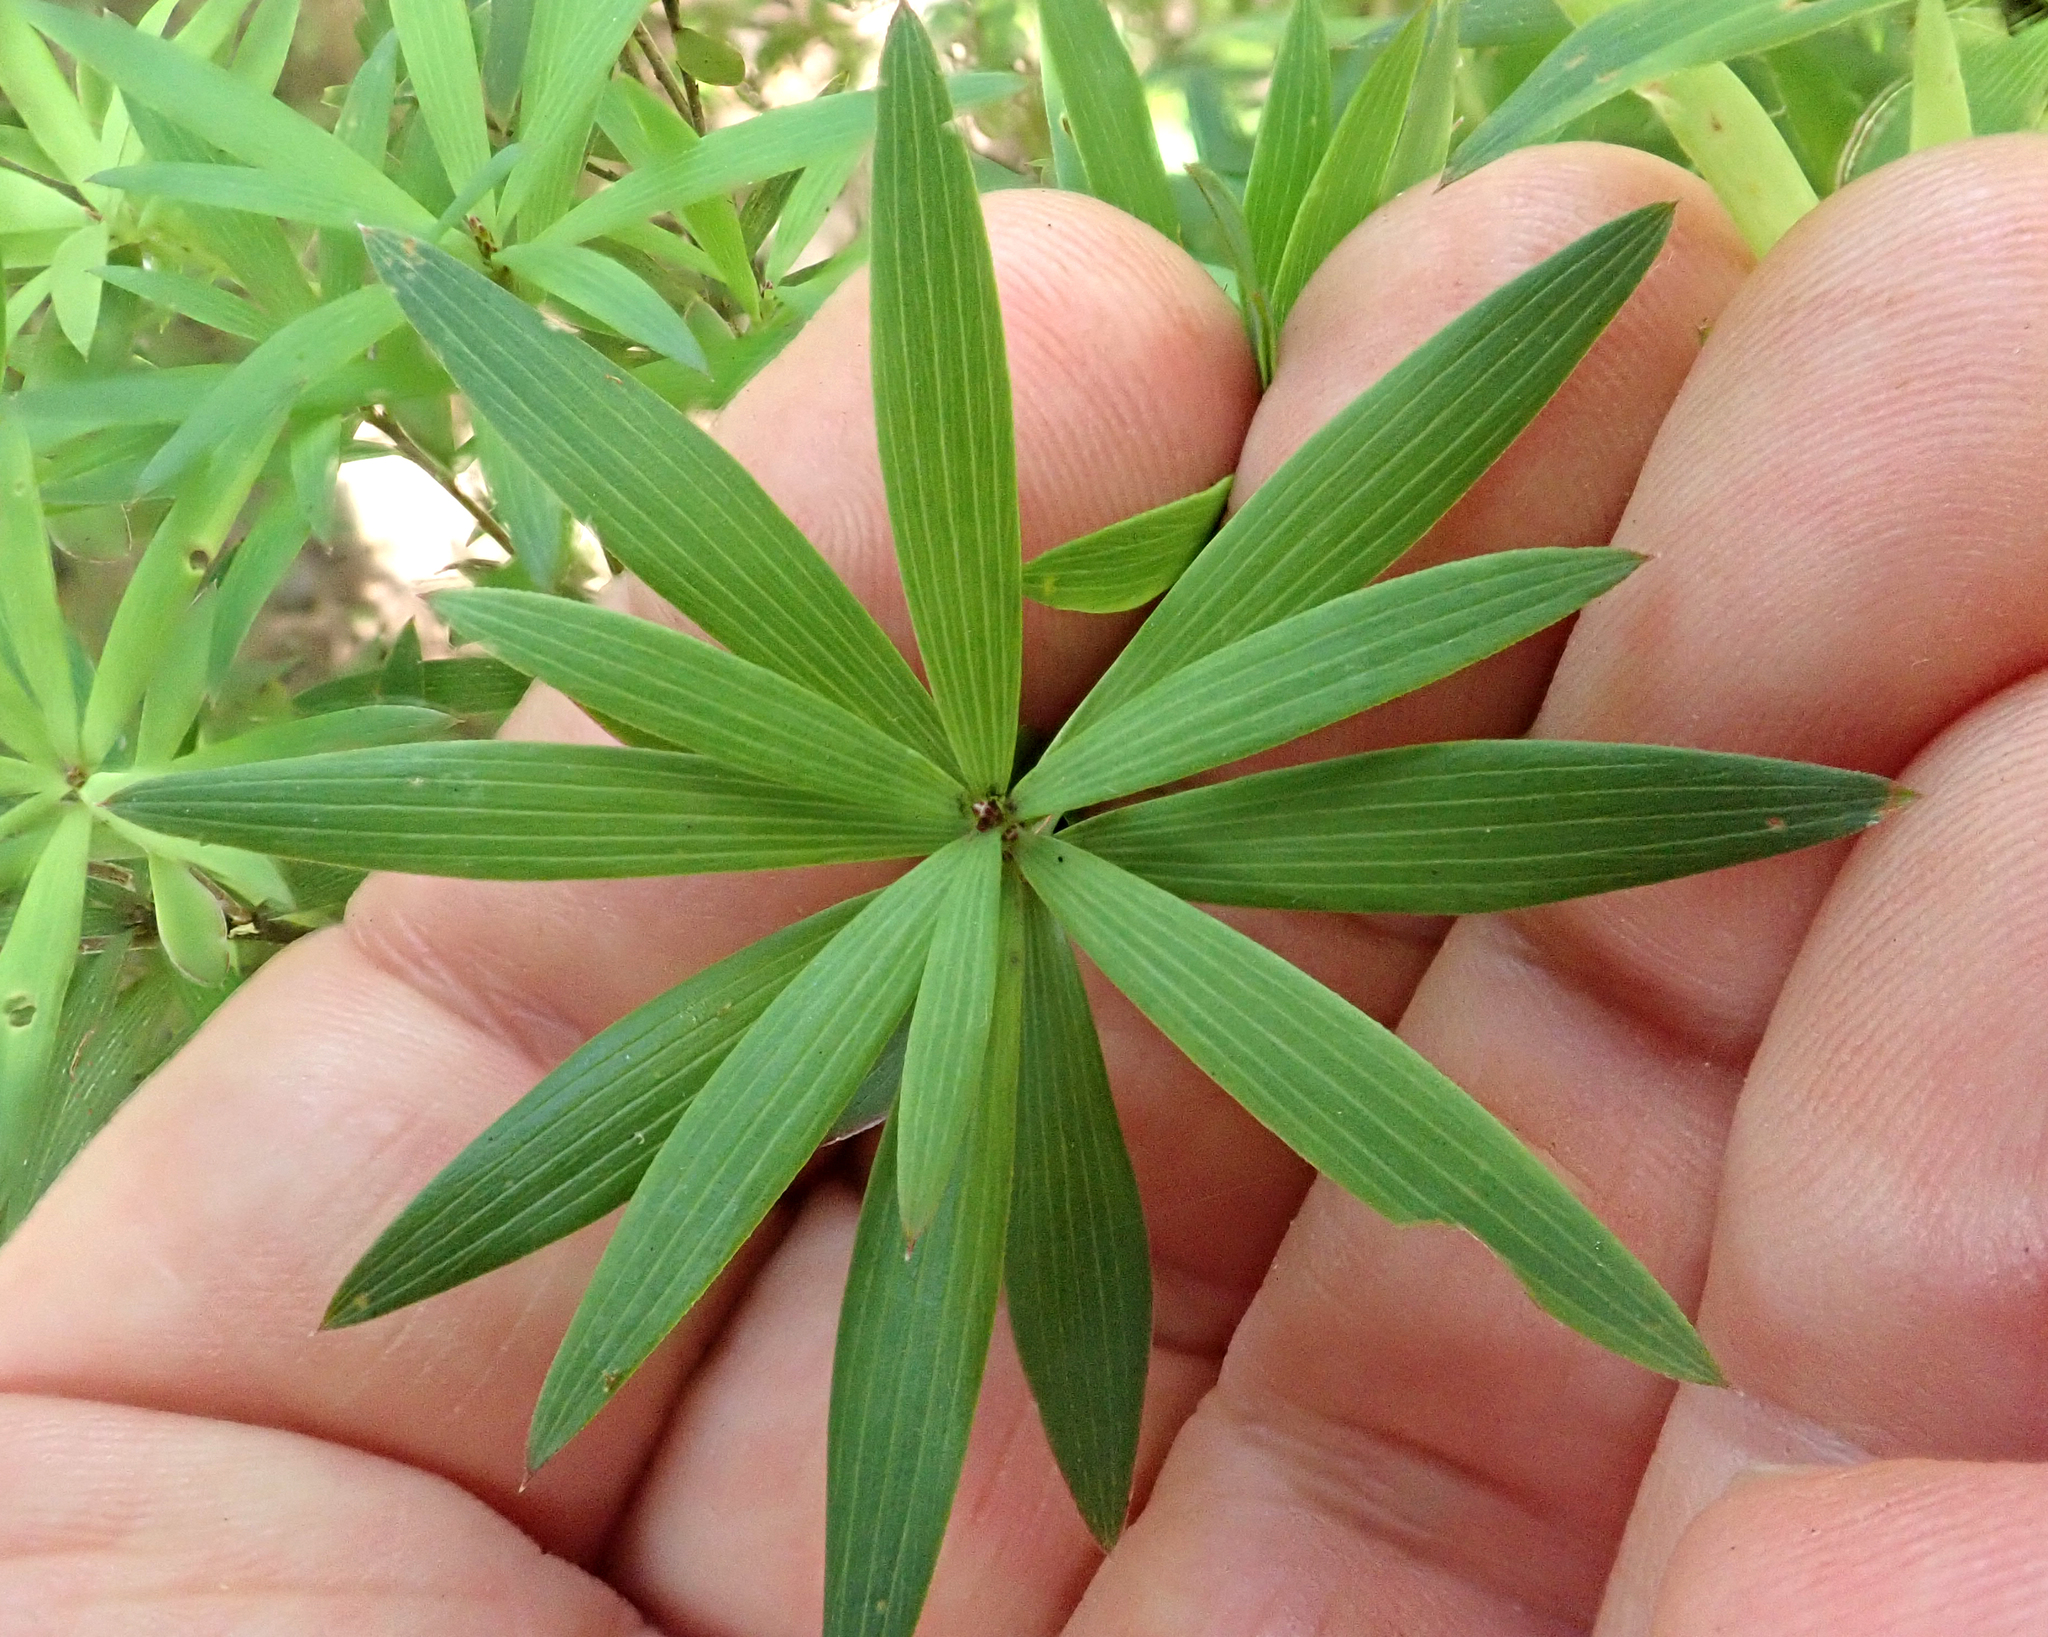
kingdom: Plantae
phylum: Tracheophyta
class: Magnoliopsida
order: Ericales
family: Ericaceae
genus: Leucopogon
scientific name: Leucopogon fasciculatus
